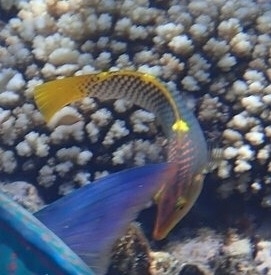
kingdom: Animalia
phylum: Chordata
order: Perciformes
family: Labridae
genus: Halichoeres
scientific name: Halichoeres hortulanus
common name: Checkerboard wrasse
